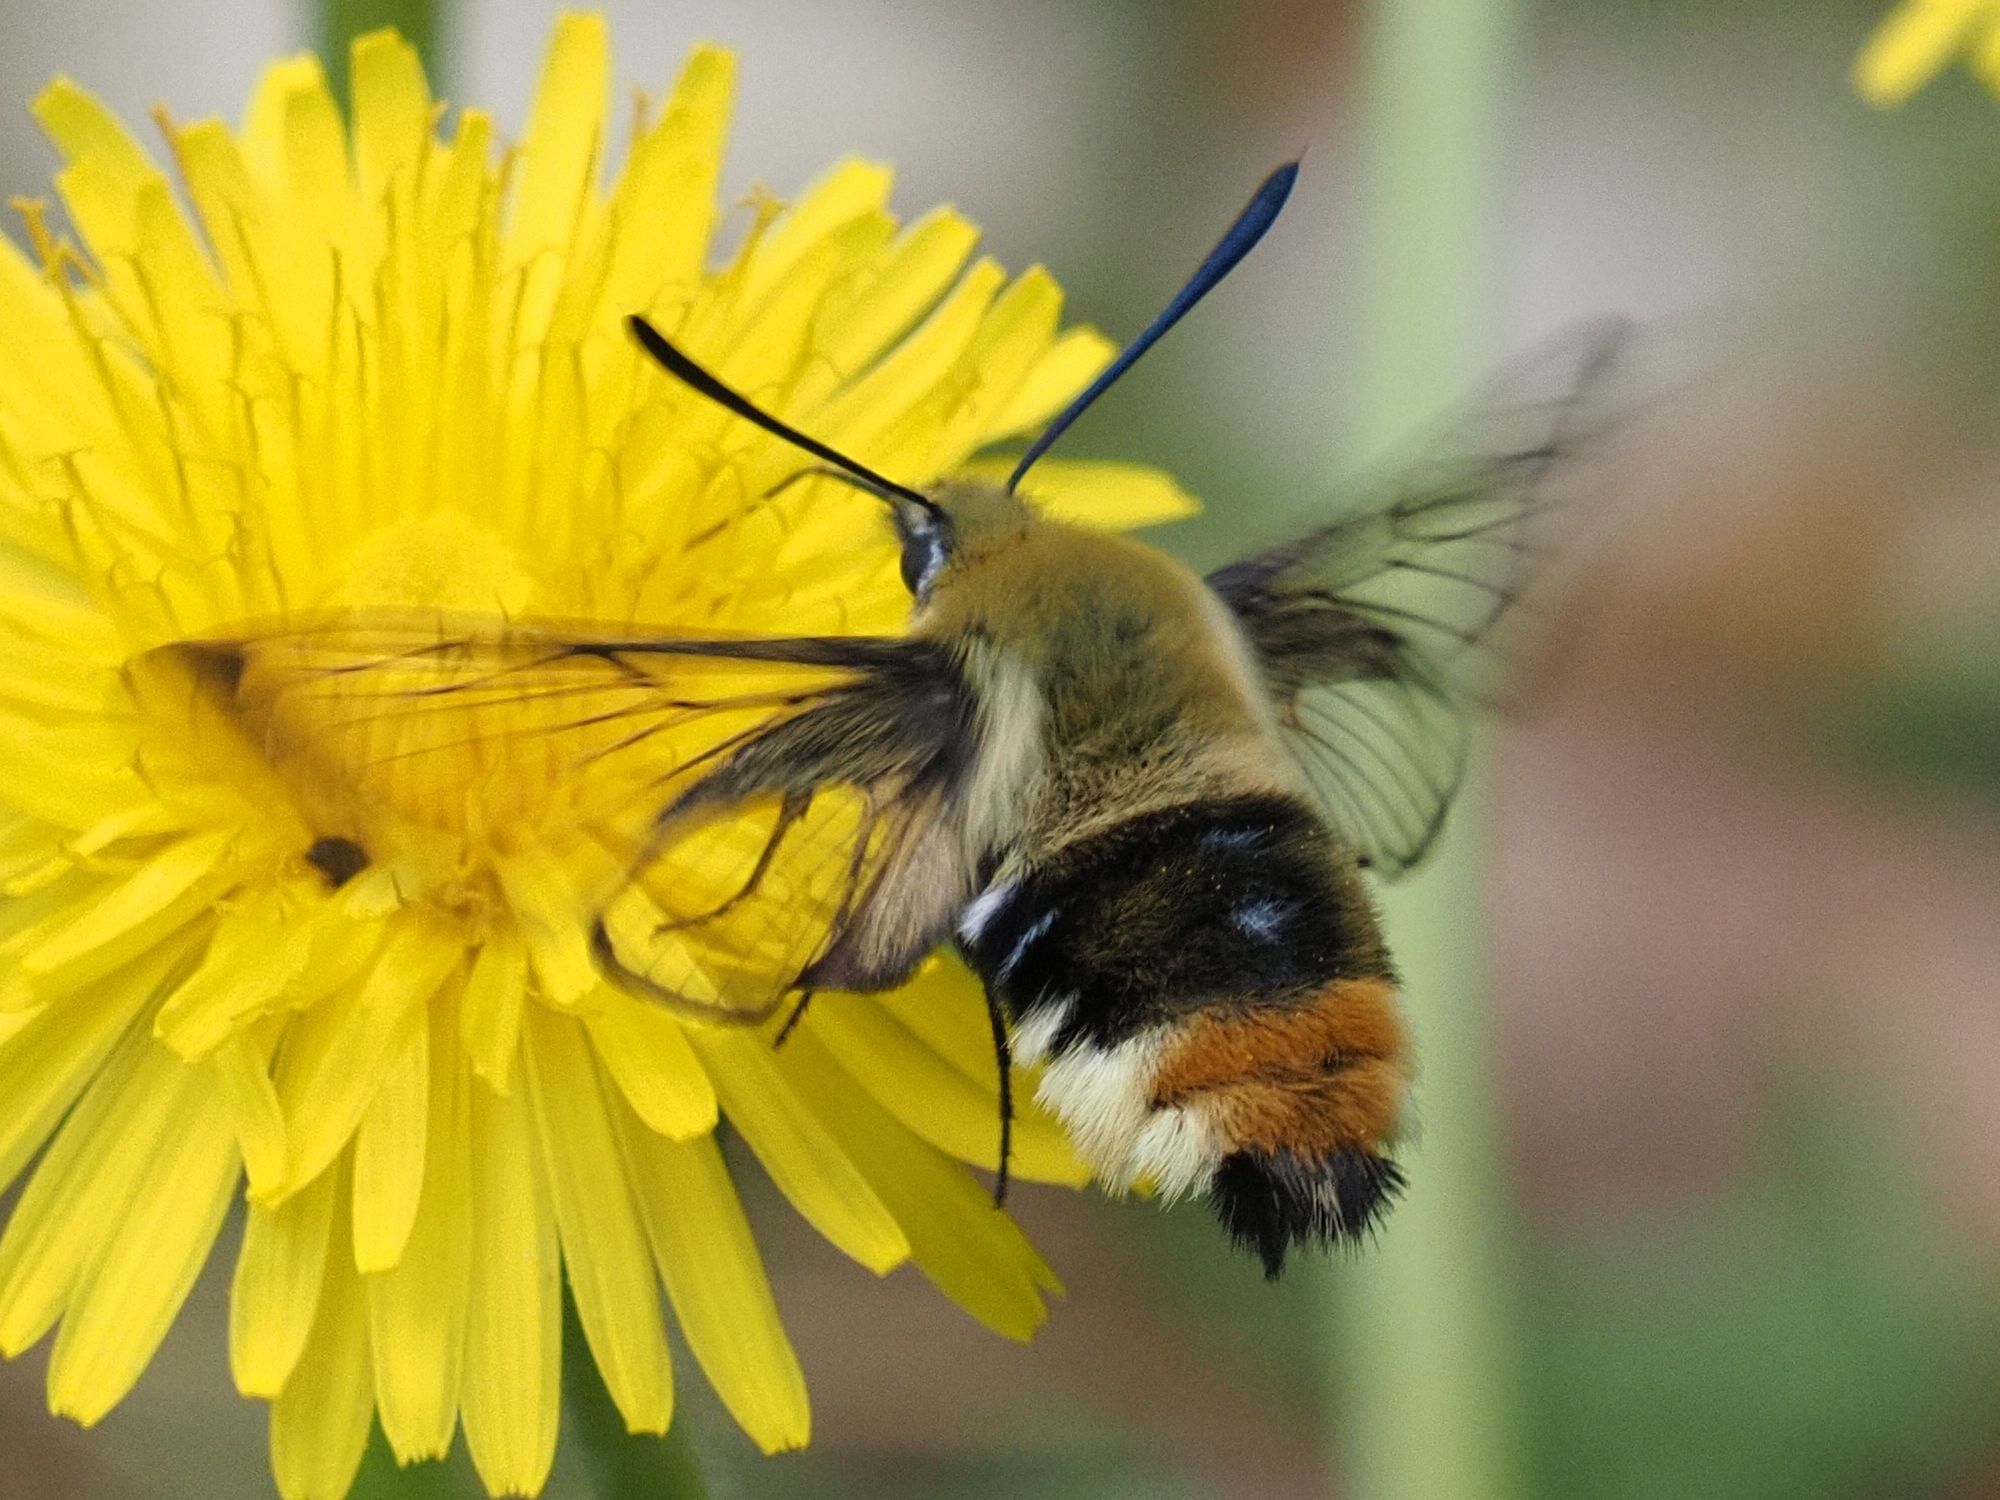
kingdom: Animalia
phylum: Arthropoda
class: Insecta
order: Lepidoptera
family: Sphingidae
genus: Hemaris
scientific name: Hemaris tityus
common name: Narrow-bordered bee hawk-moth
